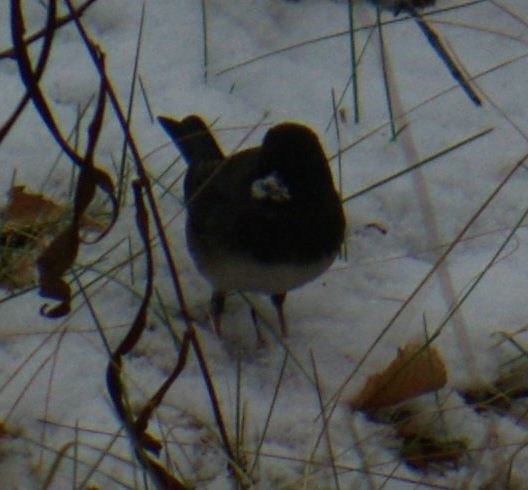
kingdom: Animalia
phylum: Chordata
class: Aves
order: Passeriformes
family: Passerellidae
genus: Junco
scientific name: Junco hyemalis
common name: Dark-eyed junco
